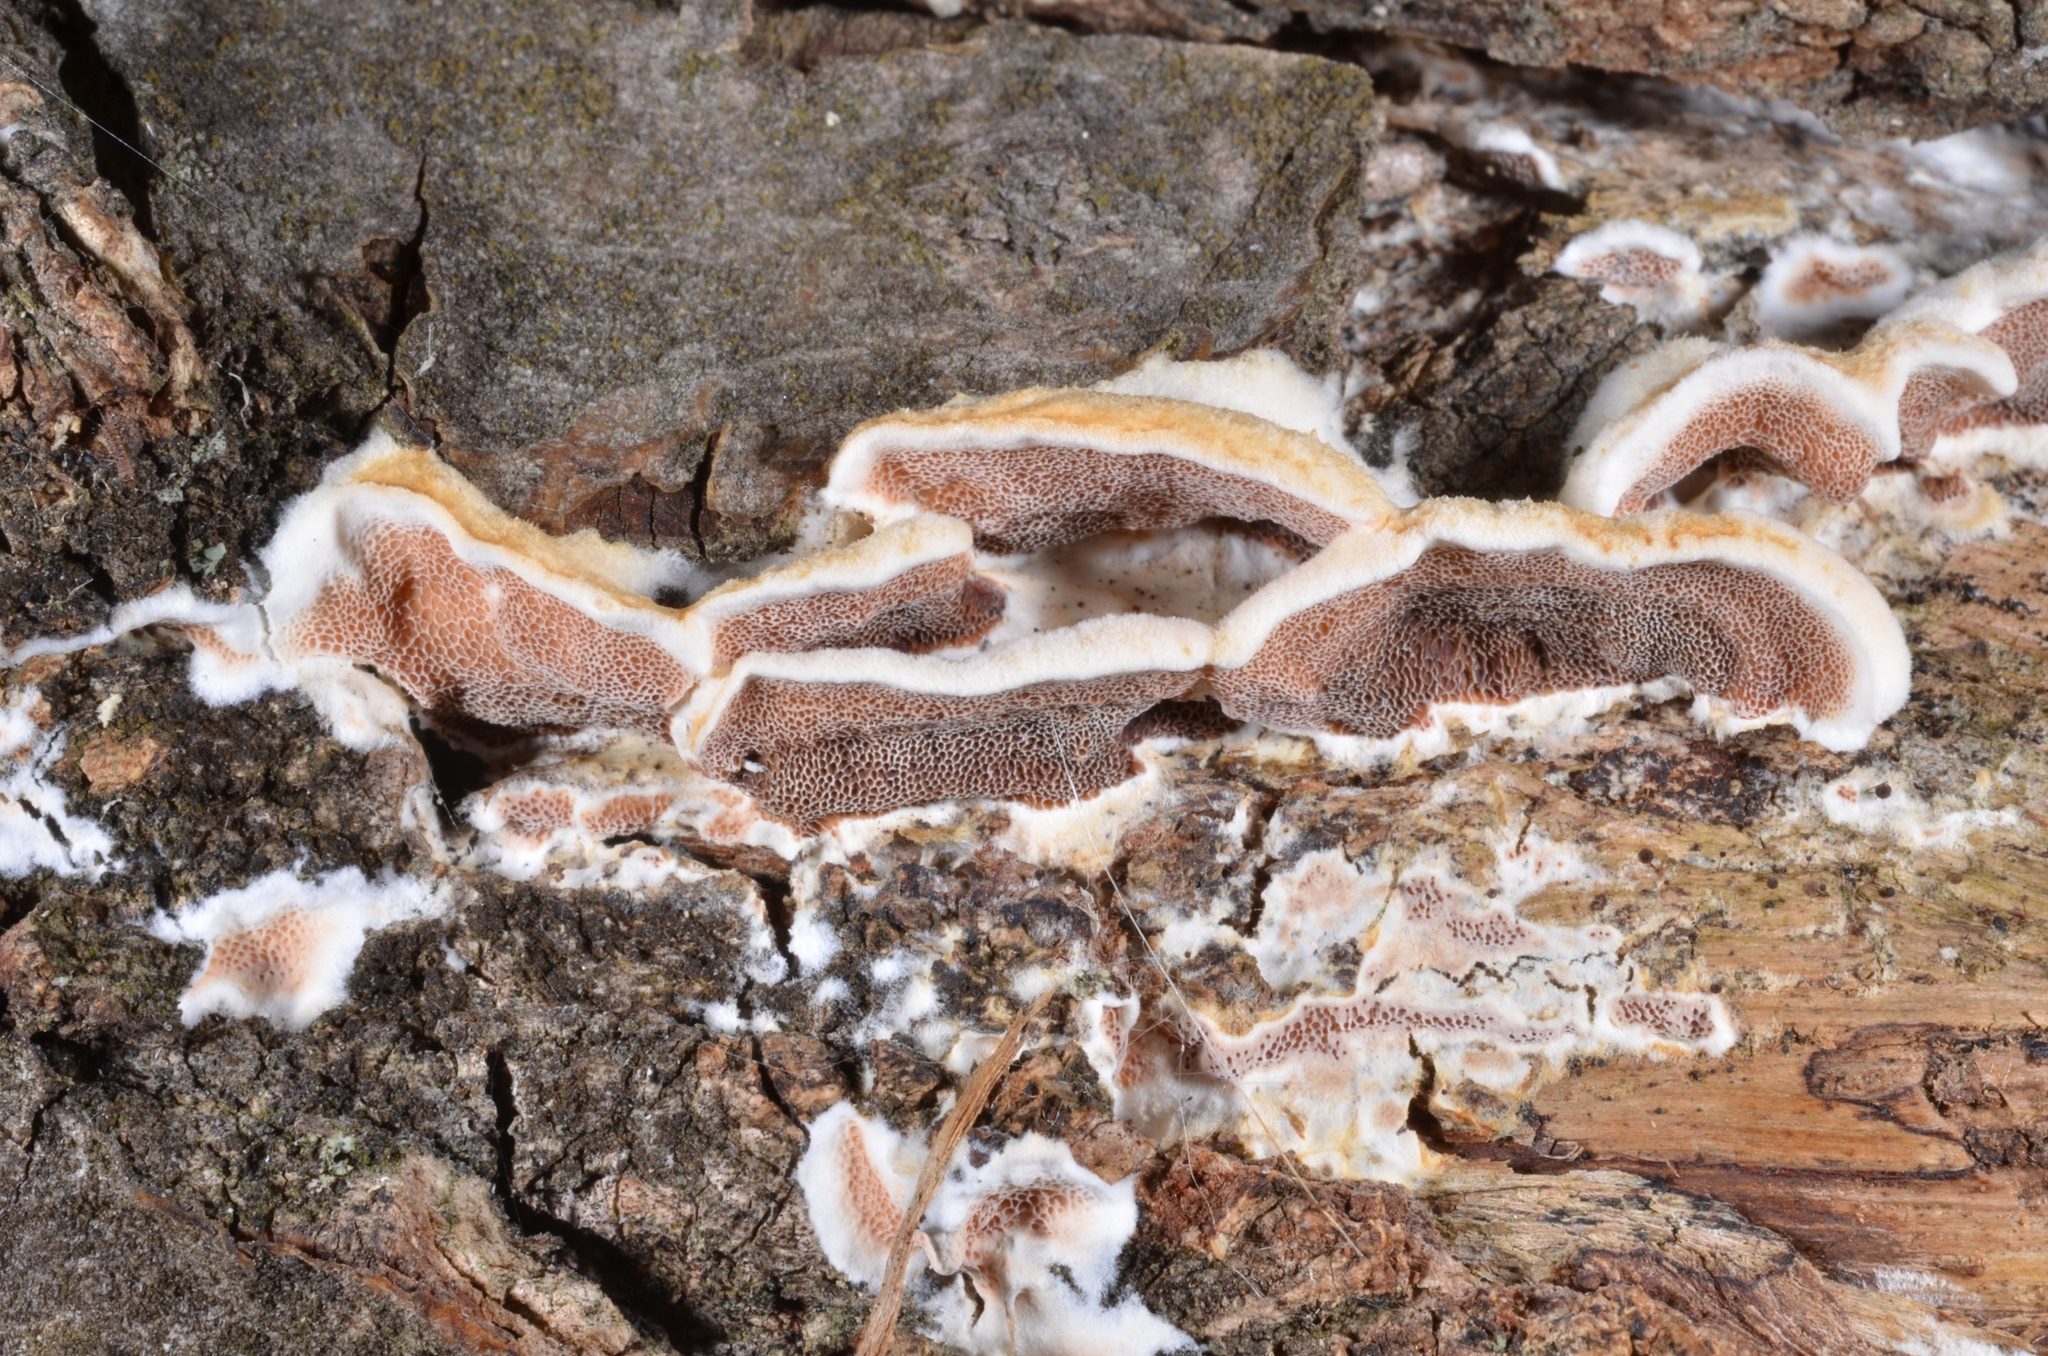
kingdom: Fungi
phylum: Basidiomycota
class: Agaricomycetes
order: Polyporales
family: Irpicaceae
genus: Vitreoporus
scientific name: Vitreoporus dichrous
